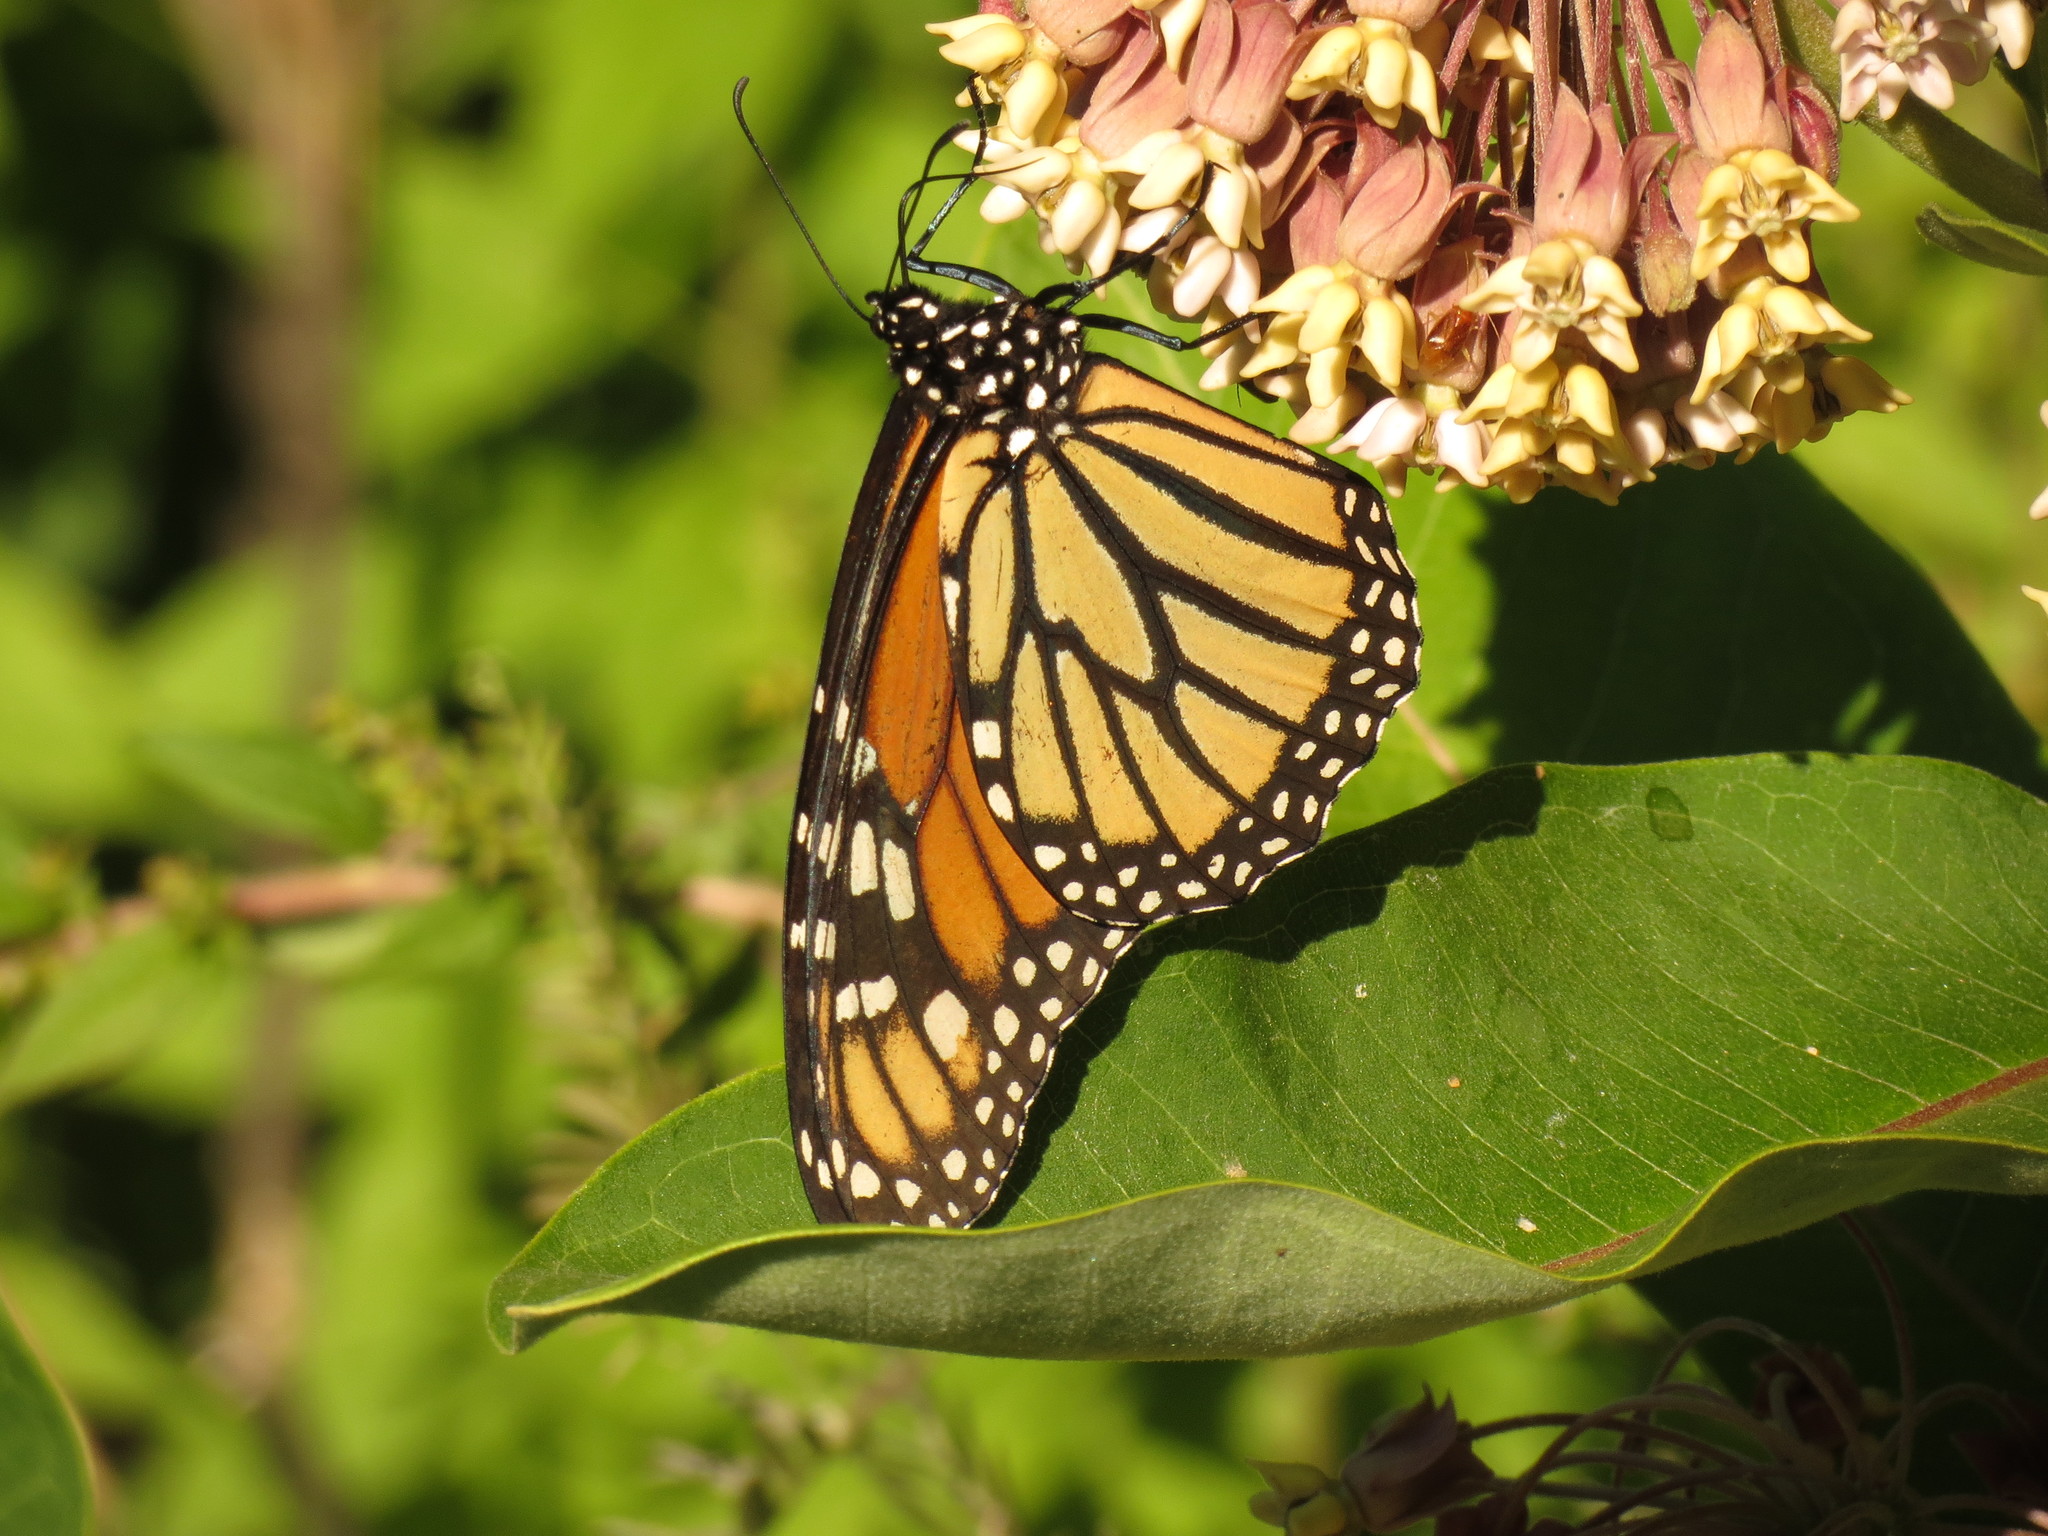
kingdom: Animalia
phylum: Arthropoda
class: Insecta
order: Lepidoptera
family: Nymphalidae
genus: Danaus
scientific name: Danaus plexippus
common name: Monarch
